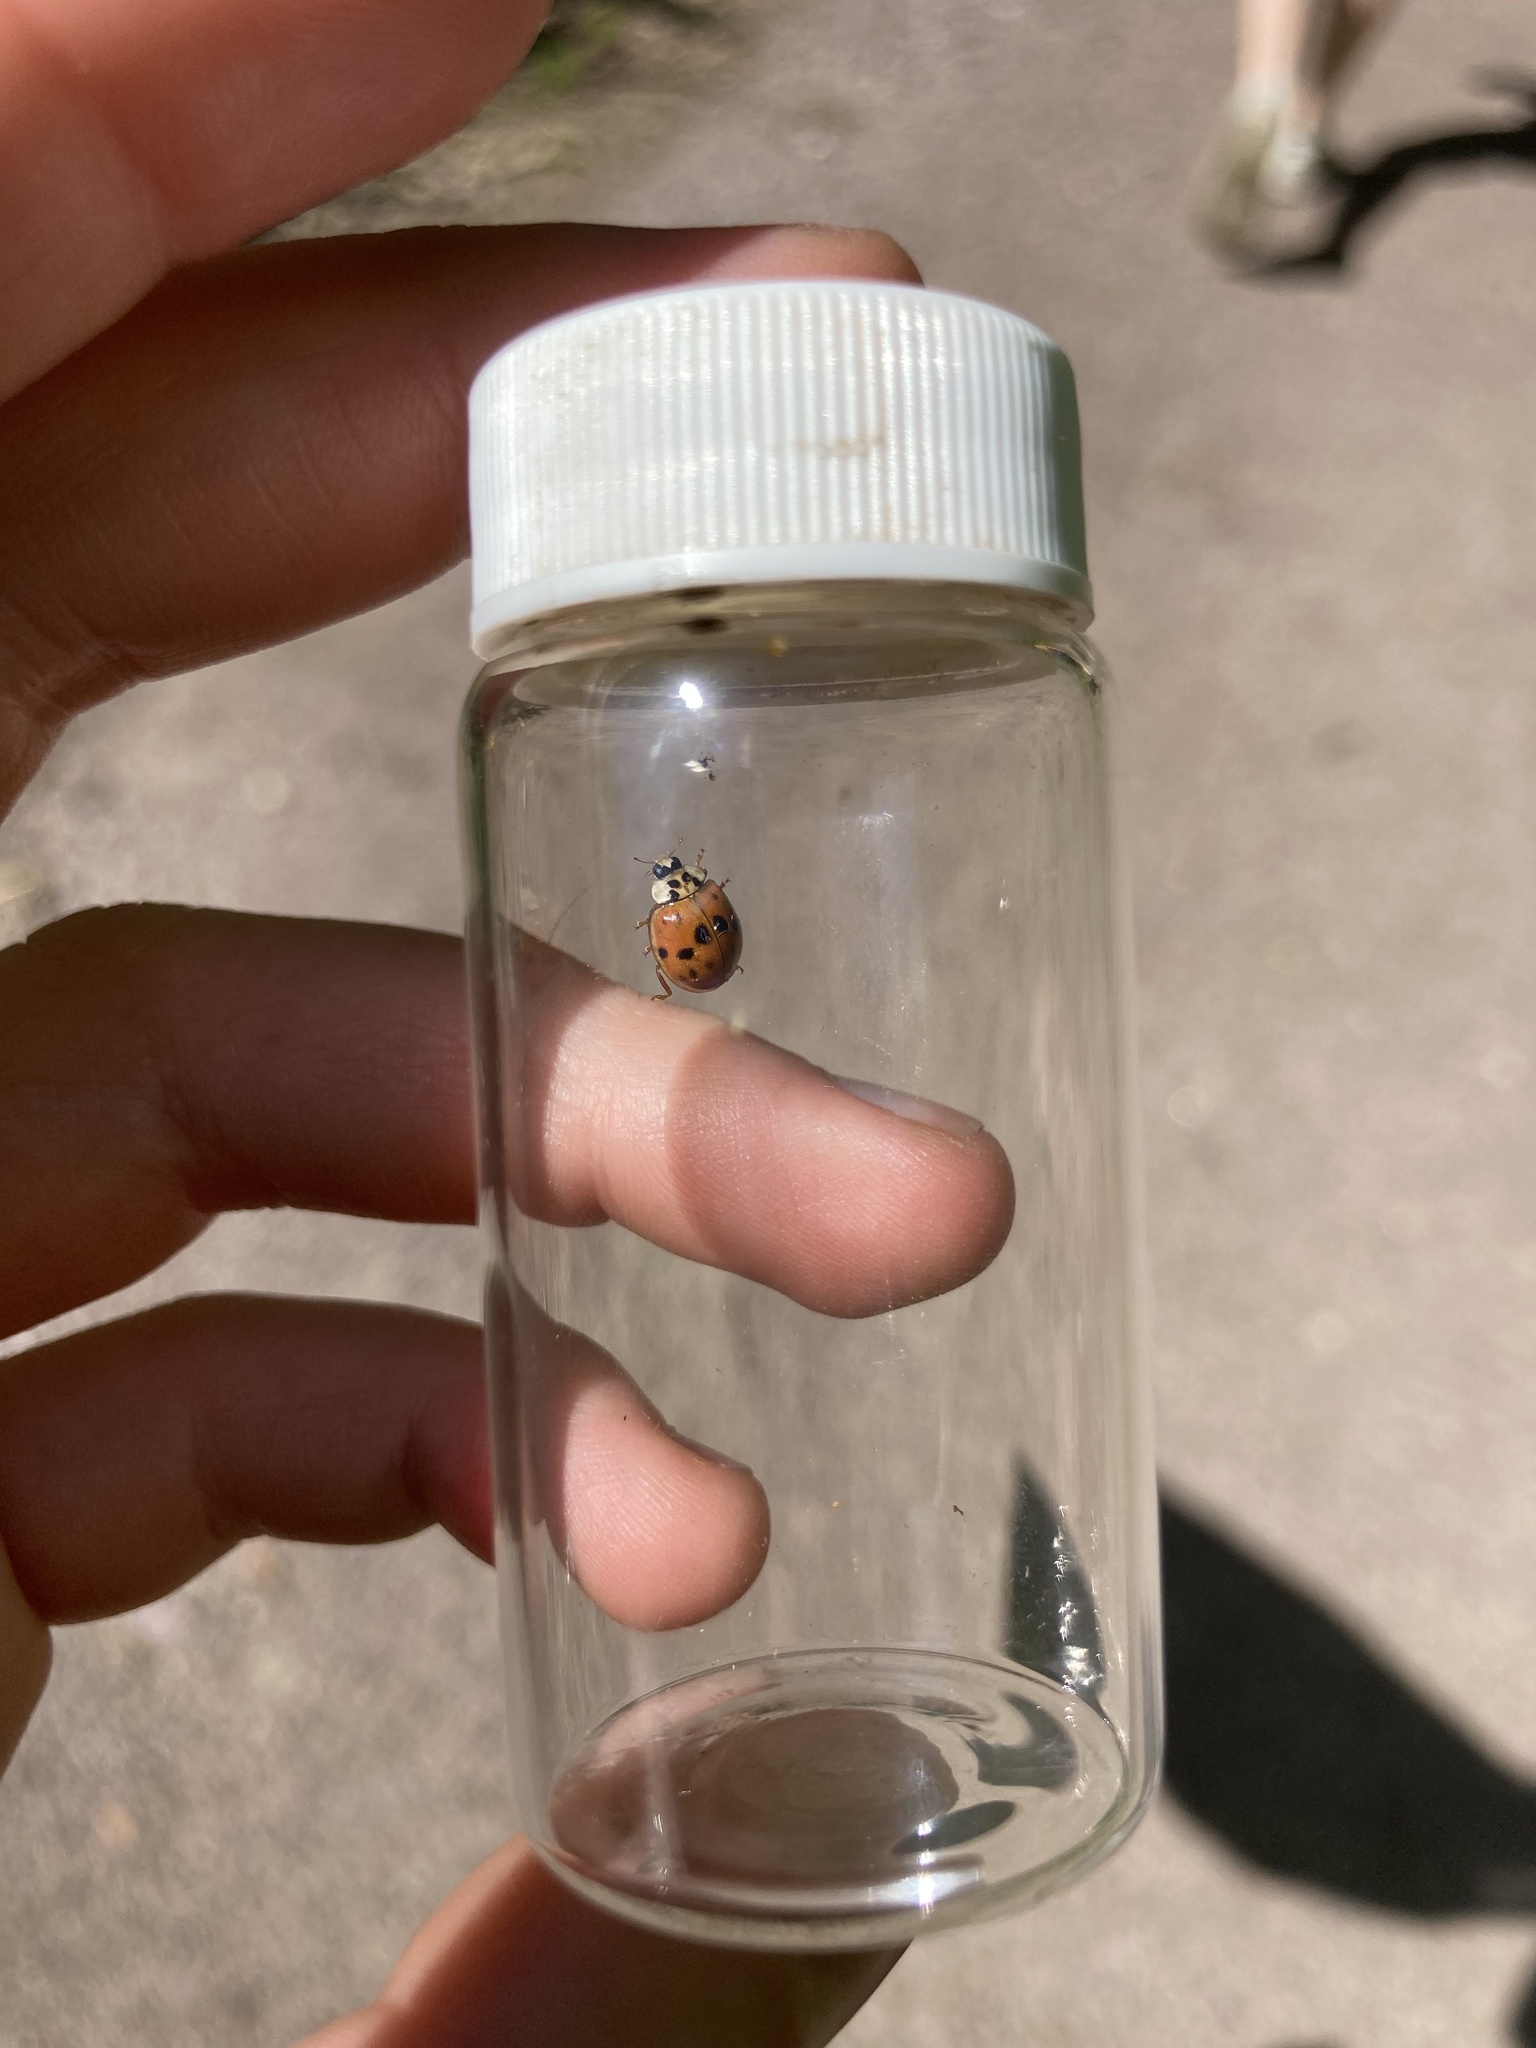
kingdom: Animalia
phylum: Arthropoda
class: Insecta
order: Coleoptera
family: Coccinellidae
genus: Harmonia
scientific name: Harmonia axyridis
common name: Harlequin ladybird
